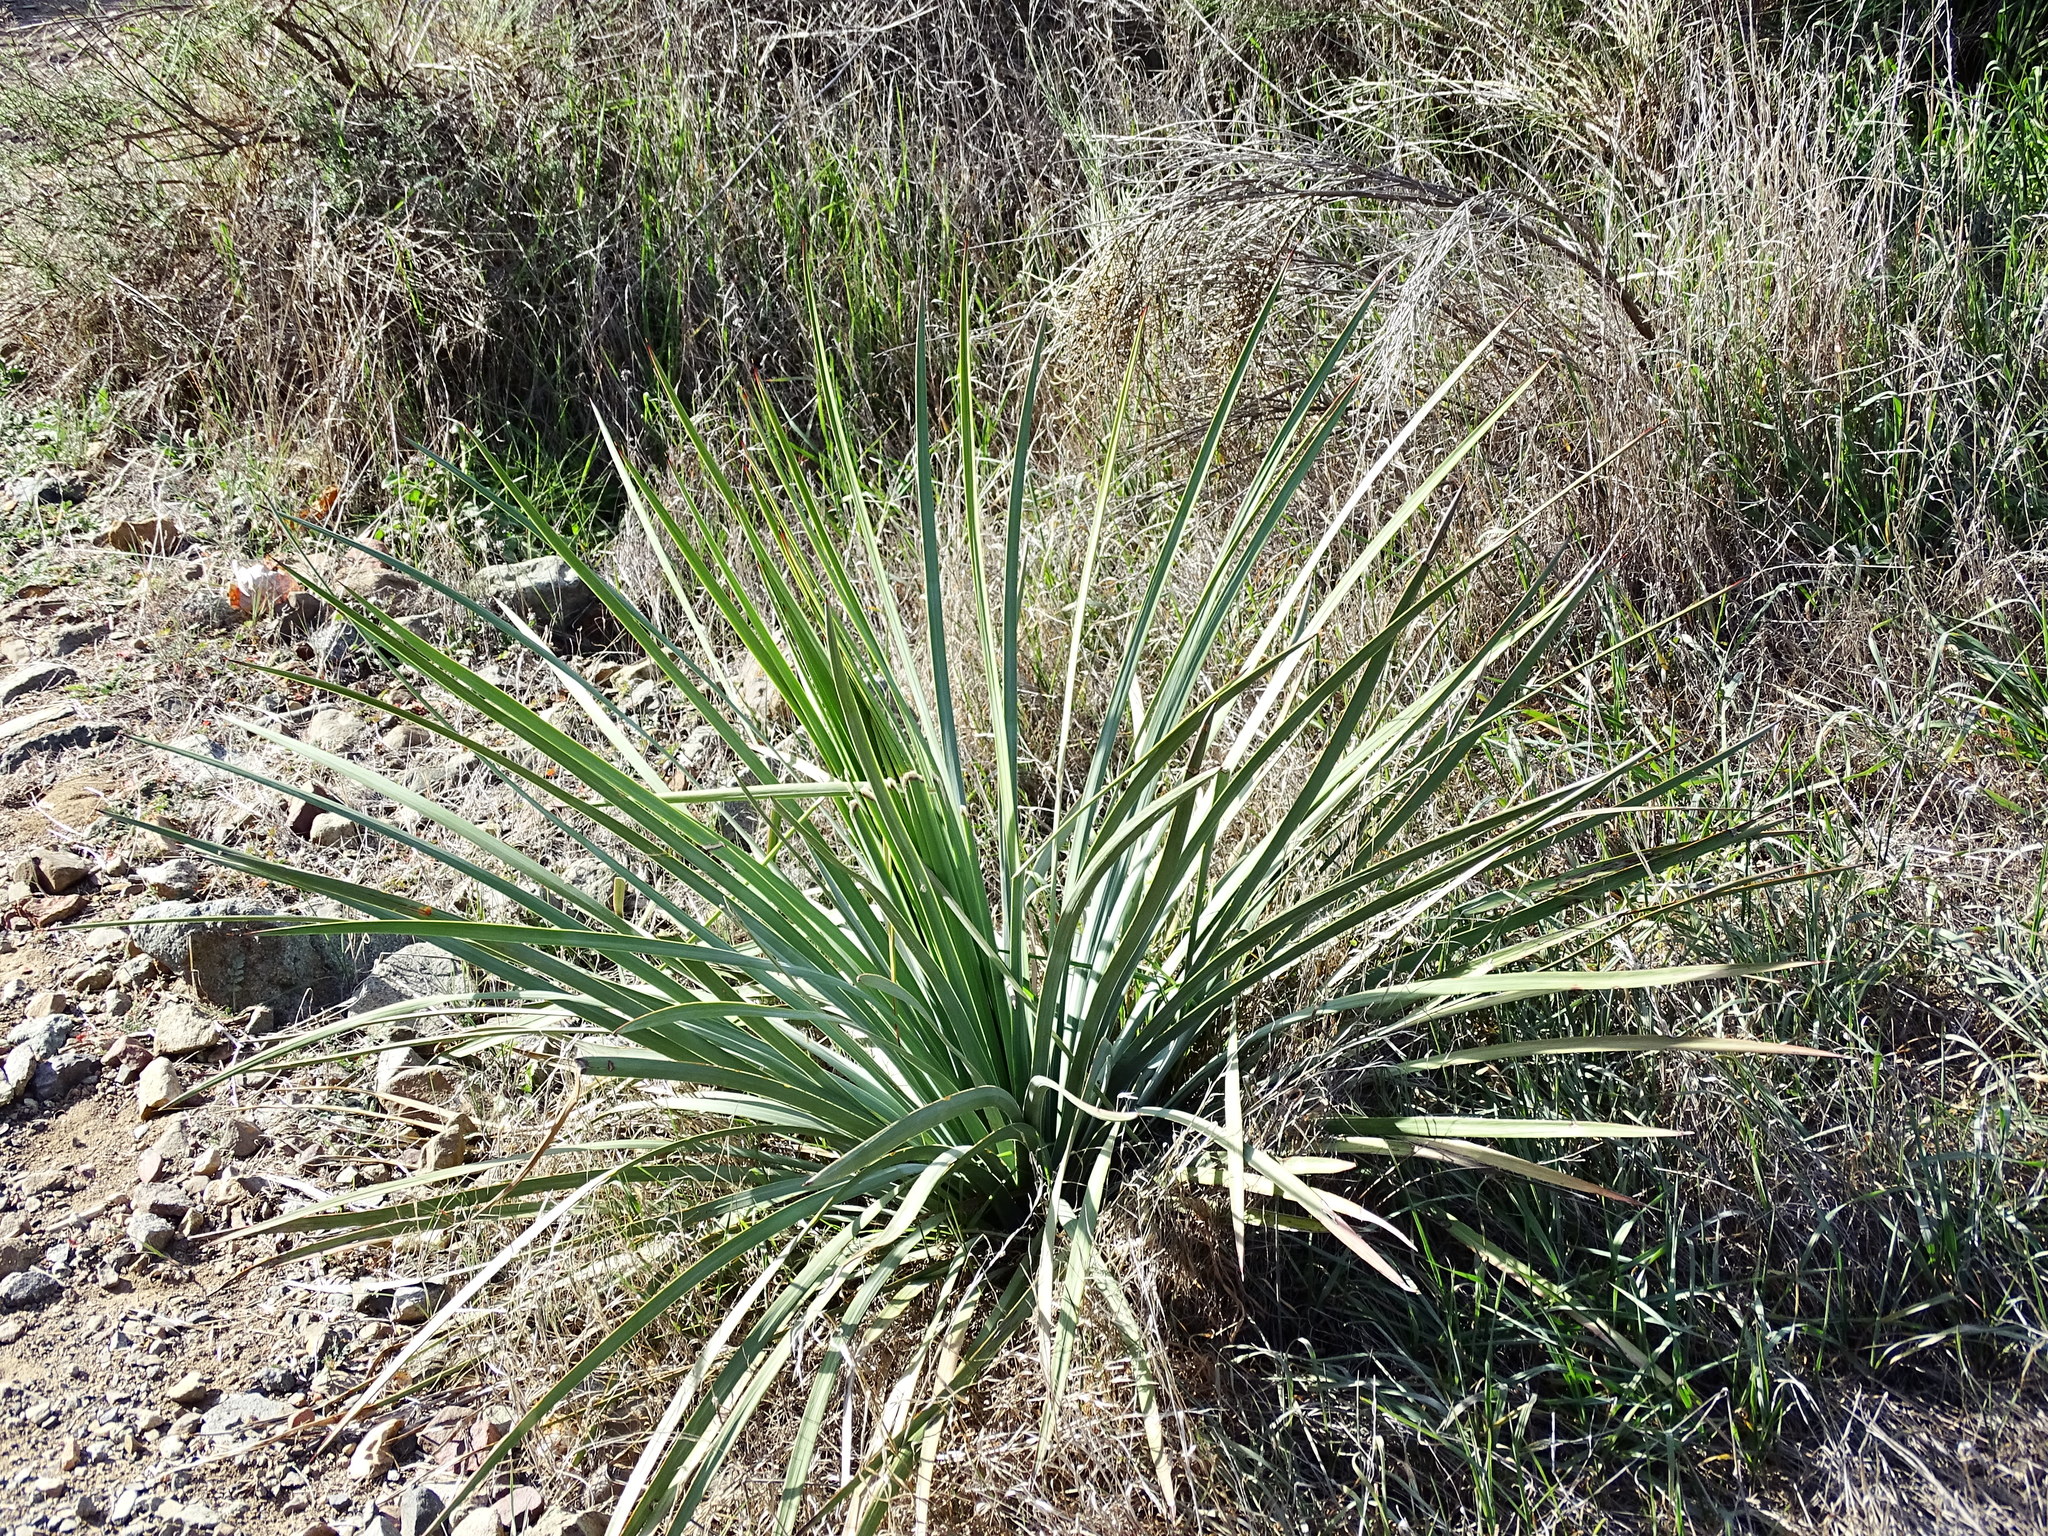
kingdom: Plantae
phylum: Tracheophyta
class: Liliopsida
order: Asparagales
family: Asparagaceae
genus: Hesperoyucca
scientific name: Hesperoyucca whipplei
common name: Our lord's-candle
